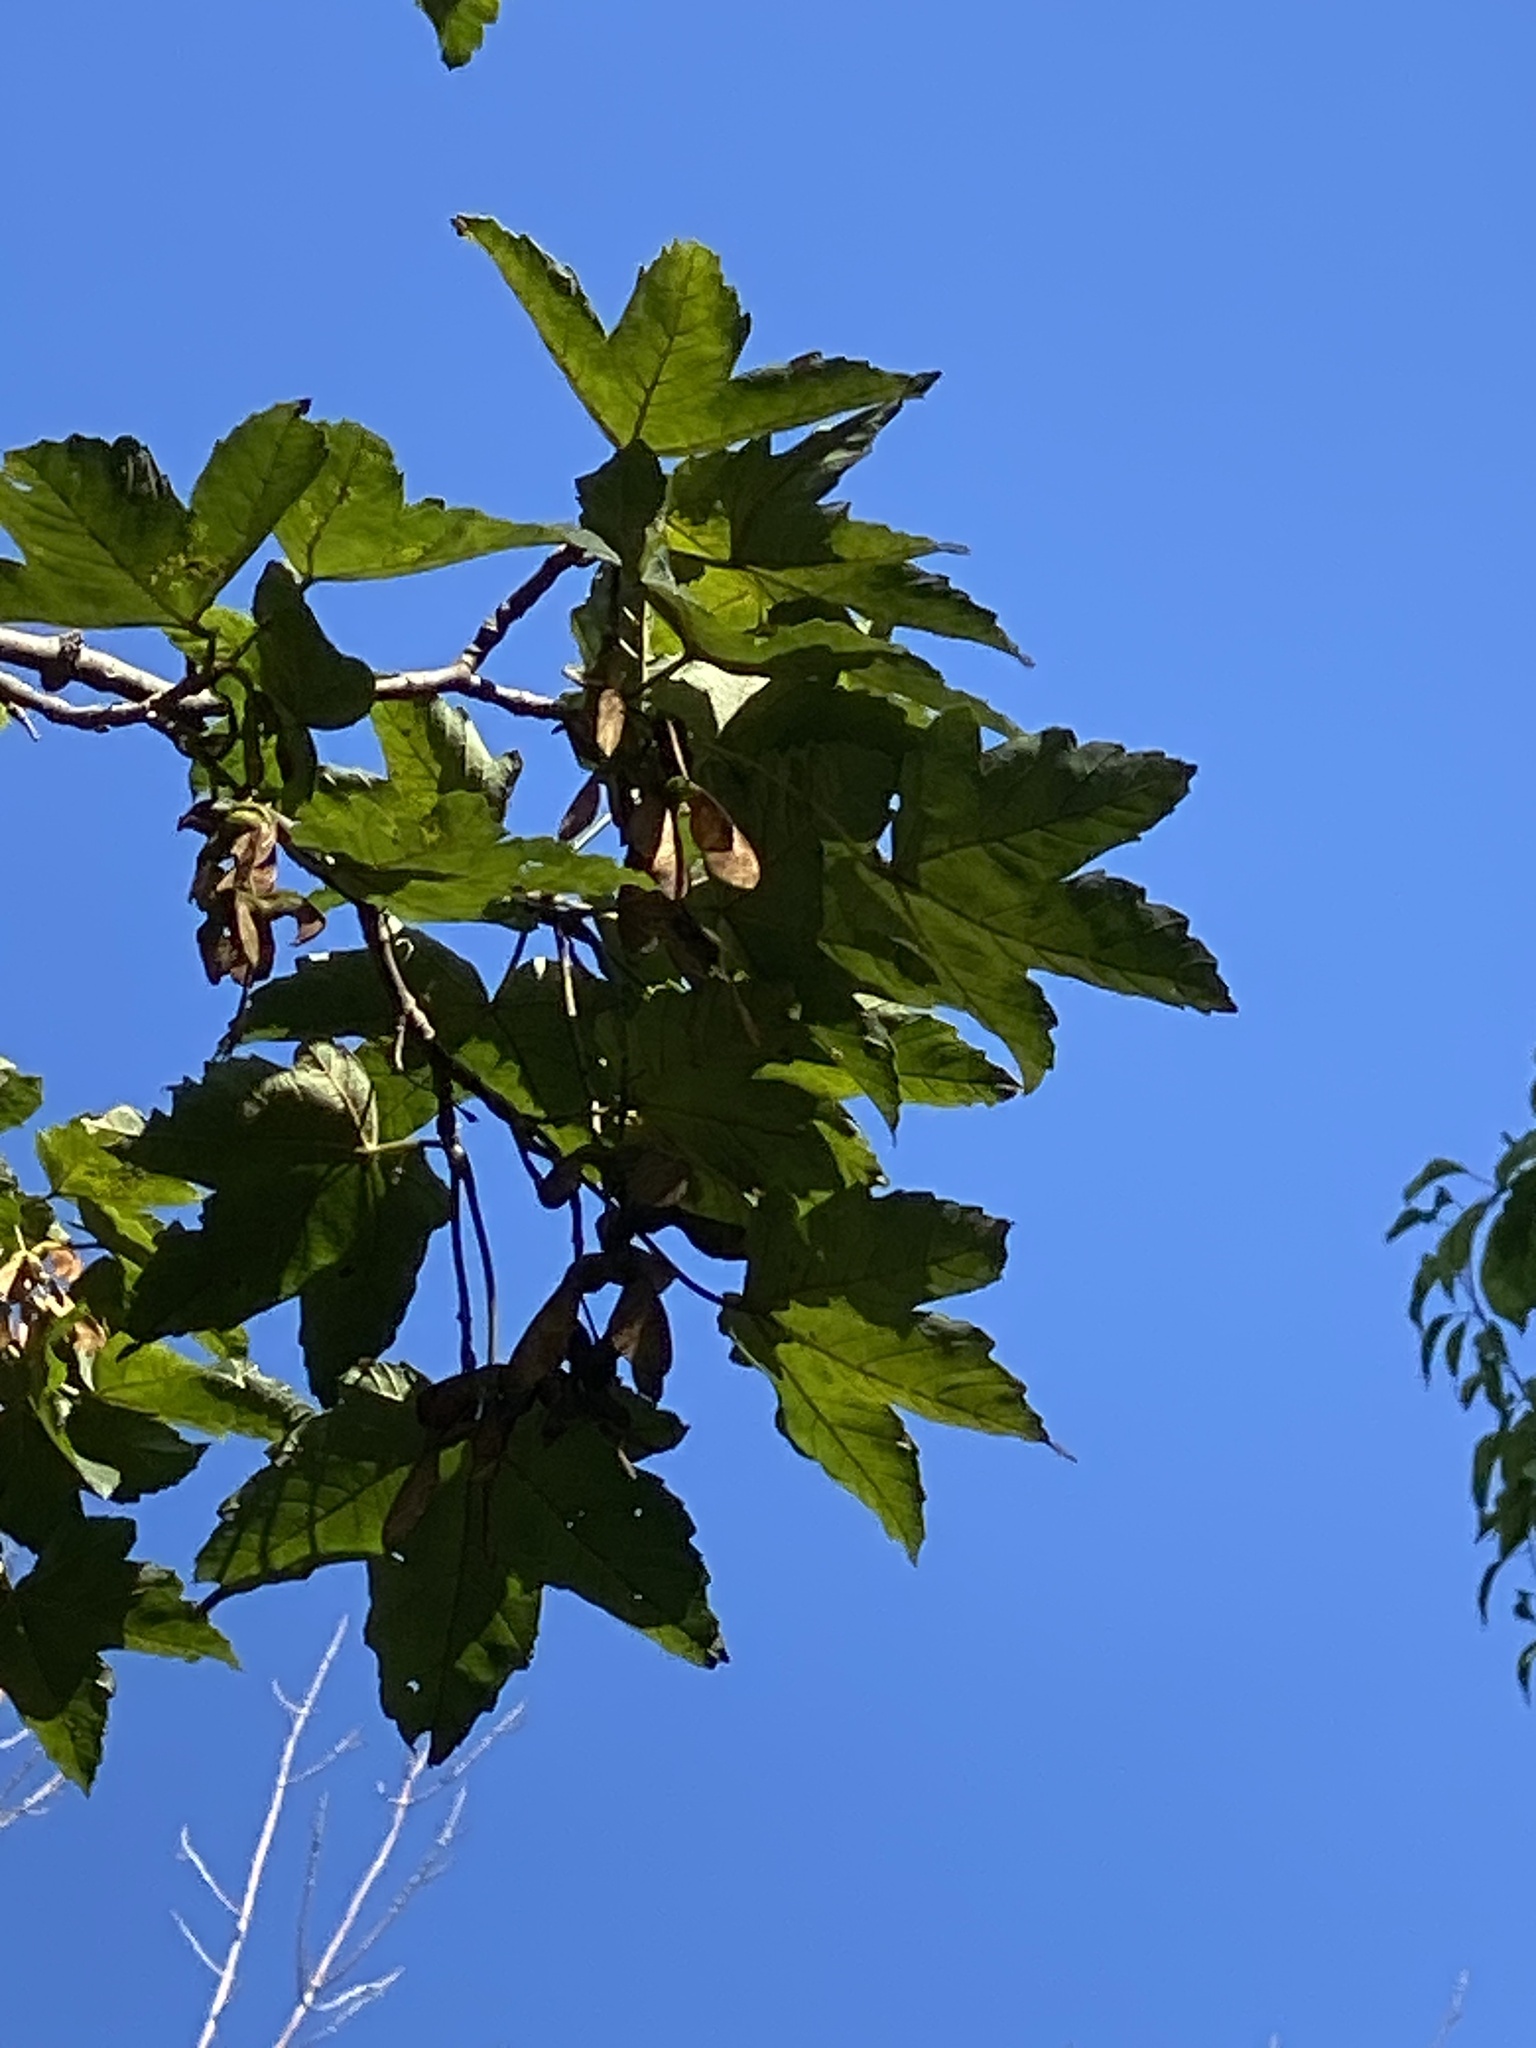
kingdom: Plantae
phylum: Tracheophyta
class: Magnoliopsida
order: Sapindales
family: Sapindaceae
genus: Acer
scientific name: Acer pseudoplatanus
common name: Sycamore
